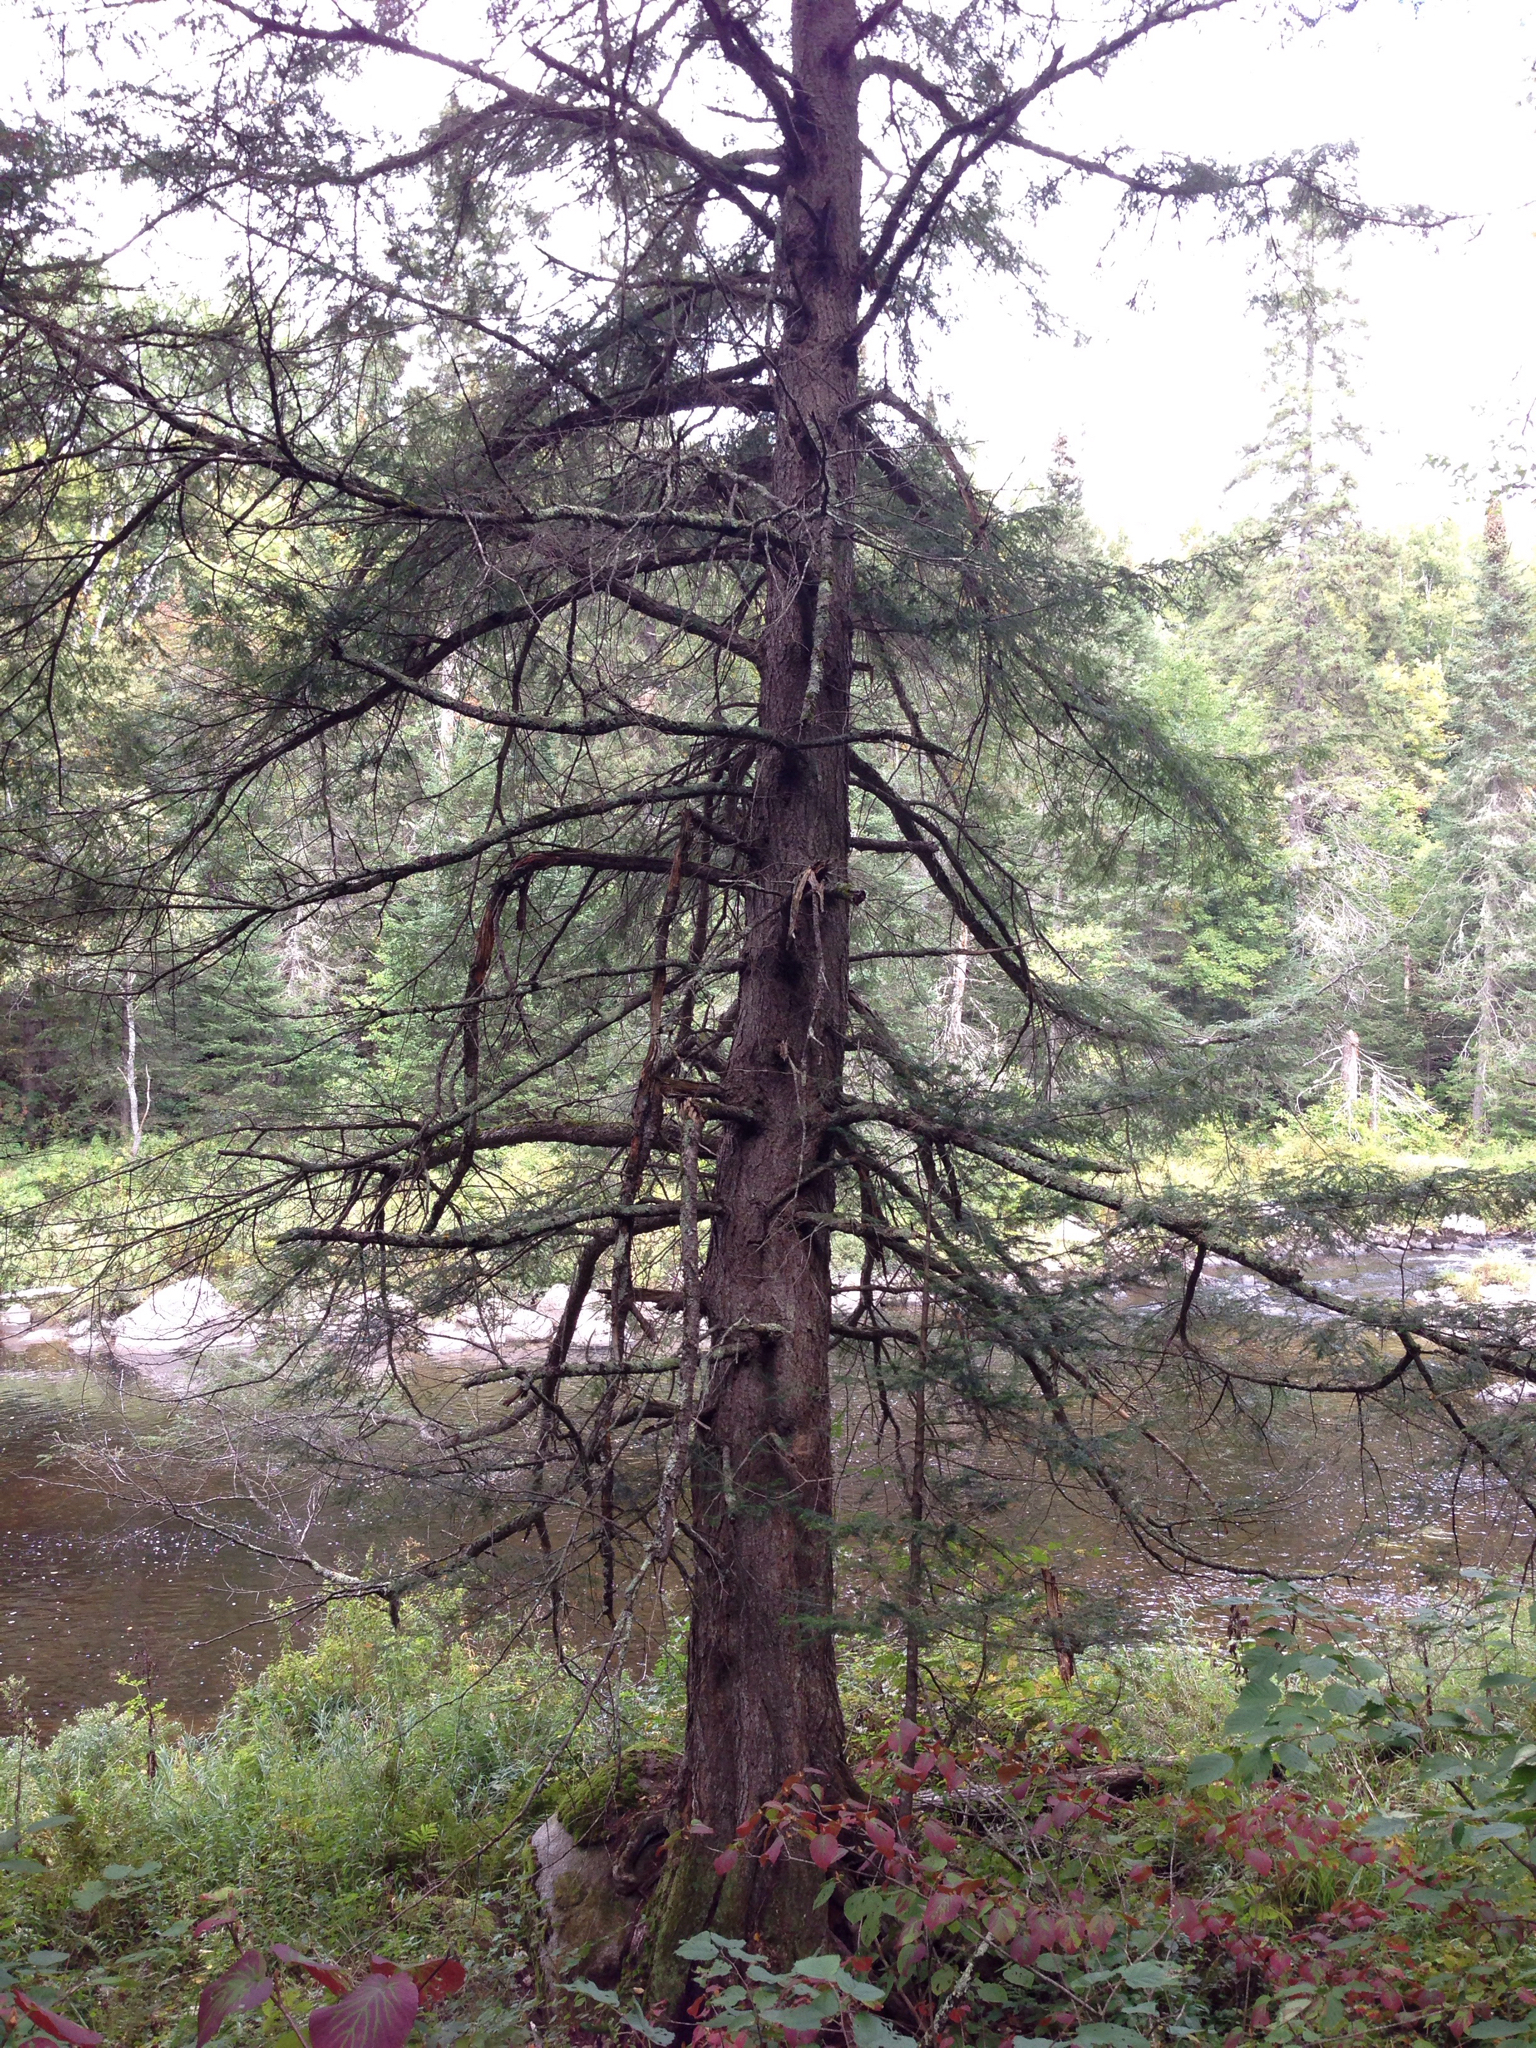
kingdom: Plantae
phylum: Tracheophyta
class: Pinopsida
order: Pinales
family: Pinaceae
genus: Tsuga
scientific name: Tsuga canadensis
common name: Eastern hemlock
